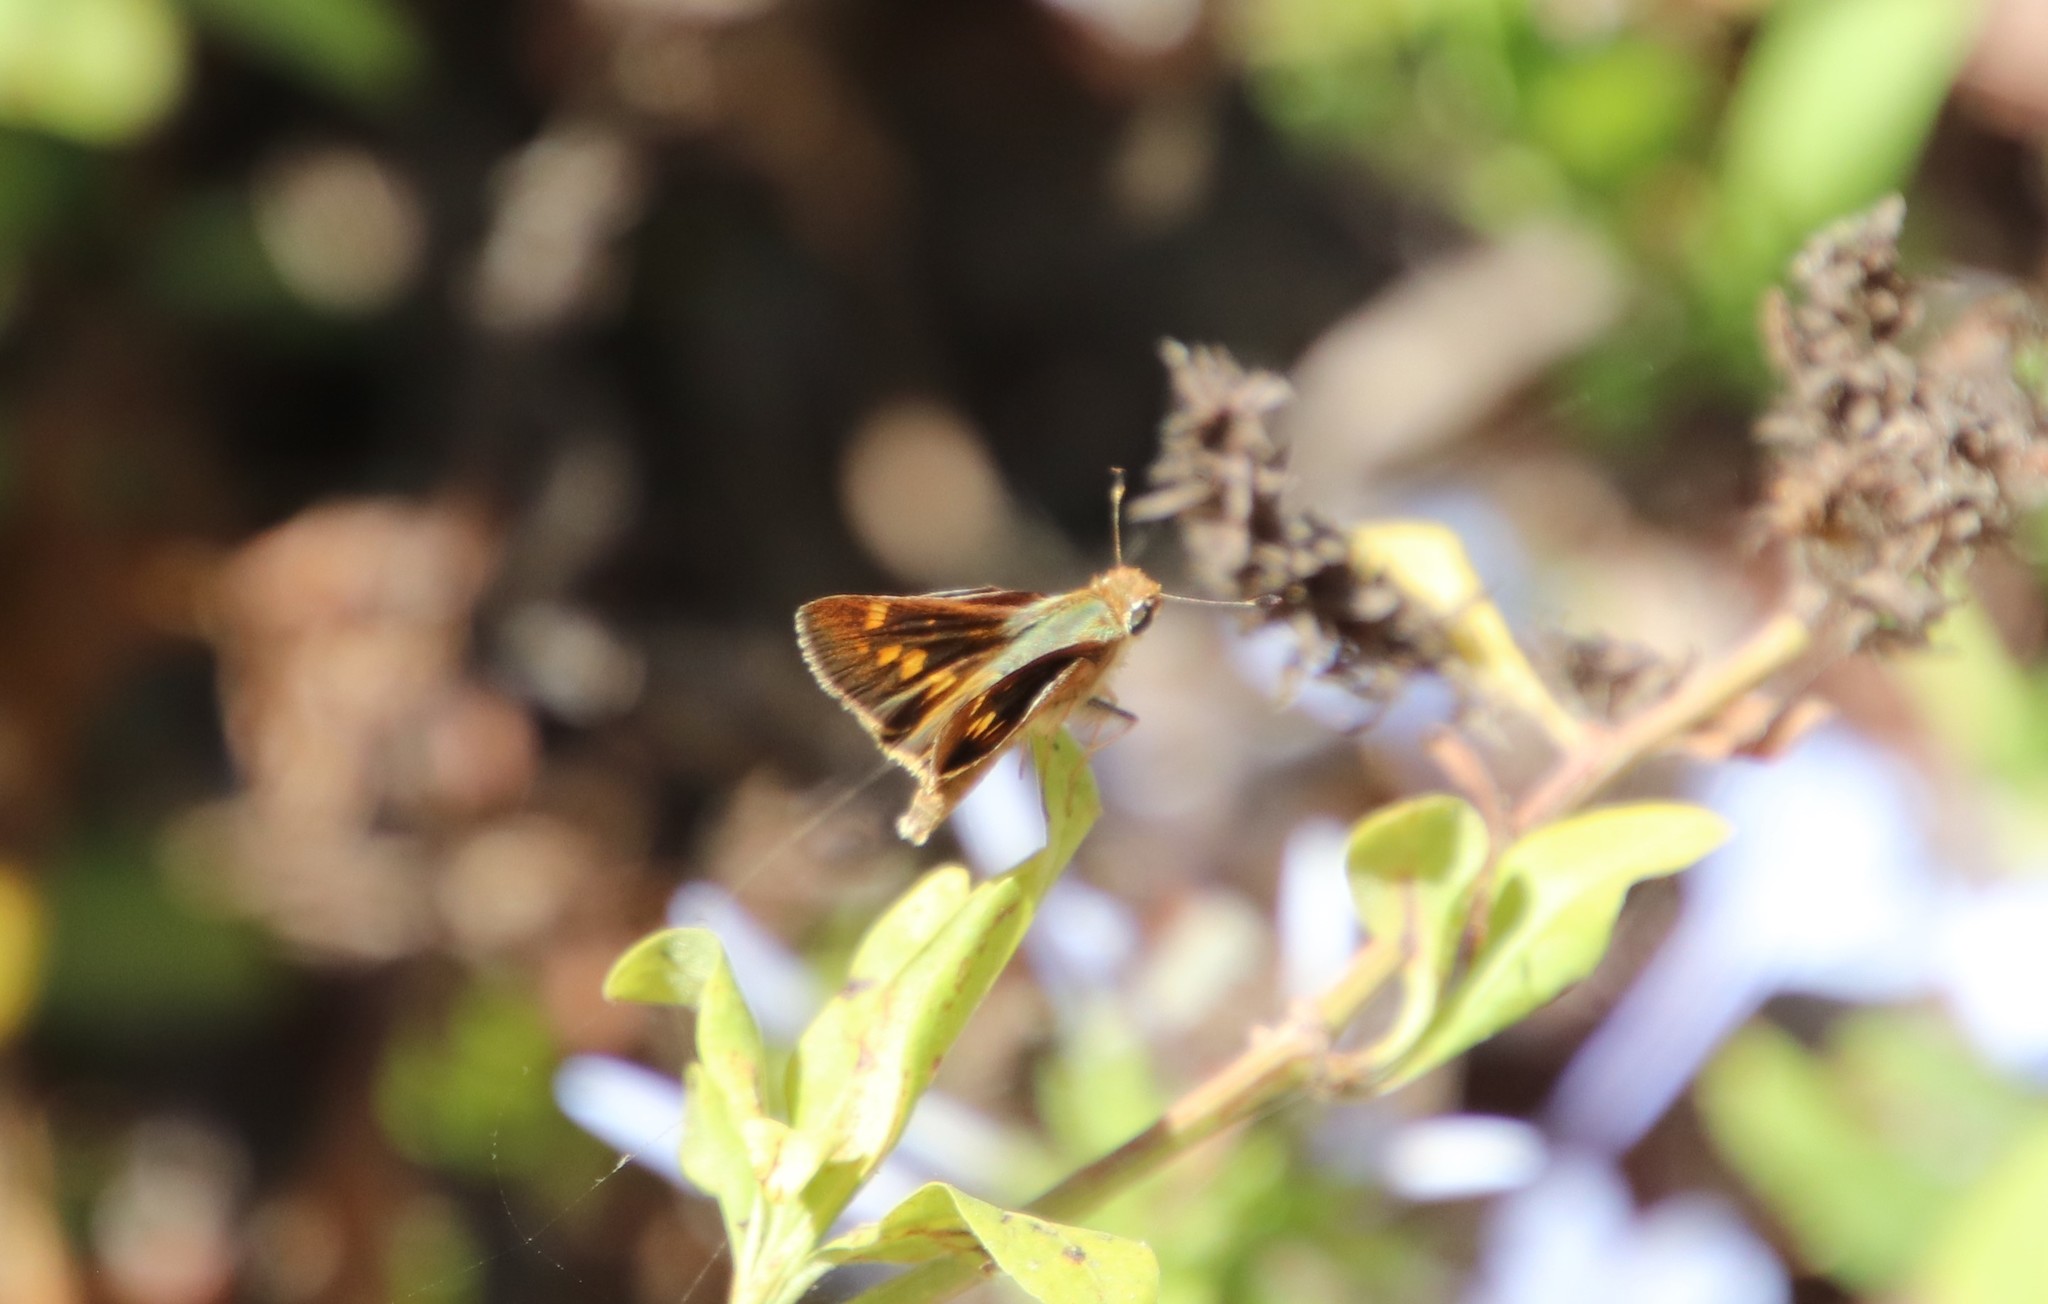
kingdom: Animalia
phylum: Arthropoda
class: Insecta
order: Lepidoptera
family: Hesperiidae
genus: Lon
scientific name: Lon melane
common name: Umber skipper
